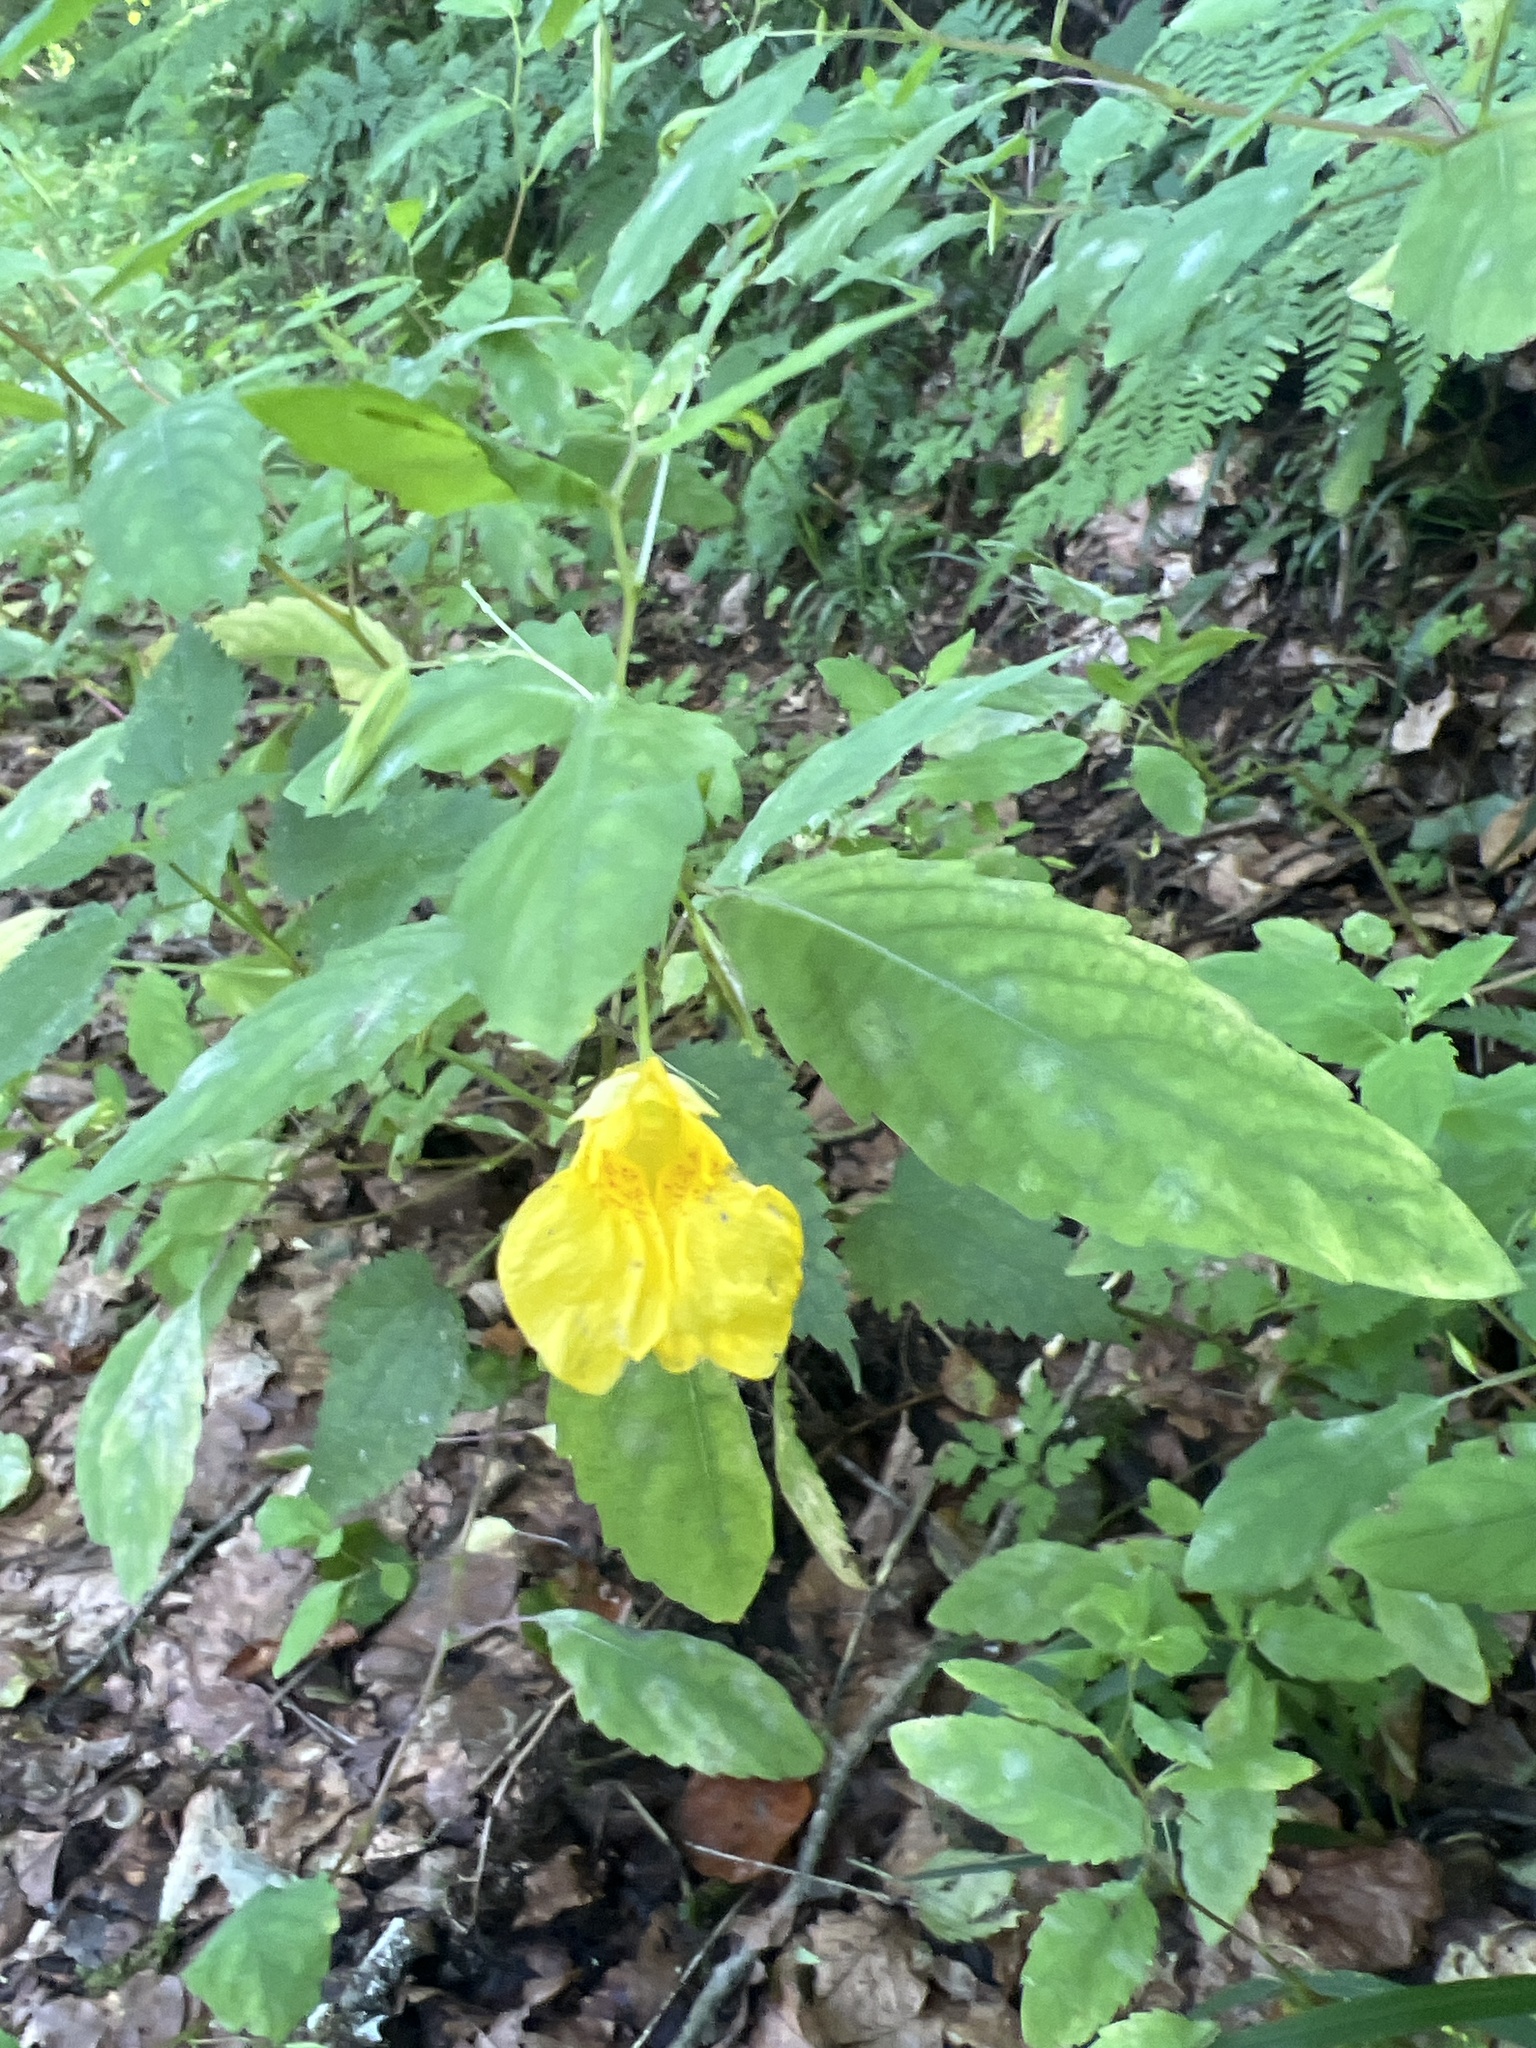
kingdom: Plantae
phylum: Tracheophyta
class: Magnoliopsida
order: Ericales
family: Balsaminaceae
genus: Impatiens
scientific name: Impatiens noli-tangere
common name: Touch-me-not balsam
